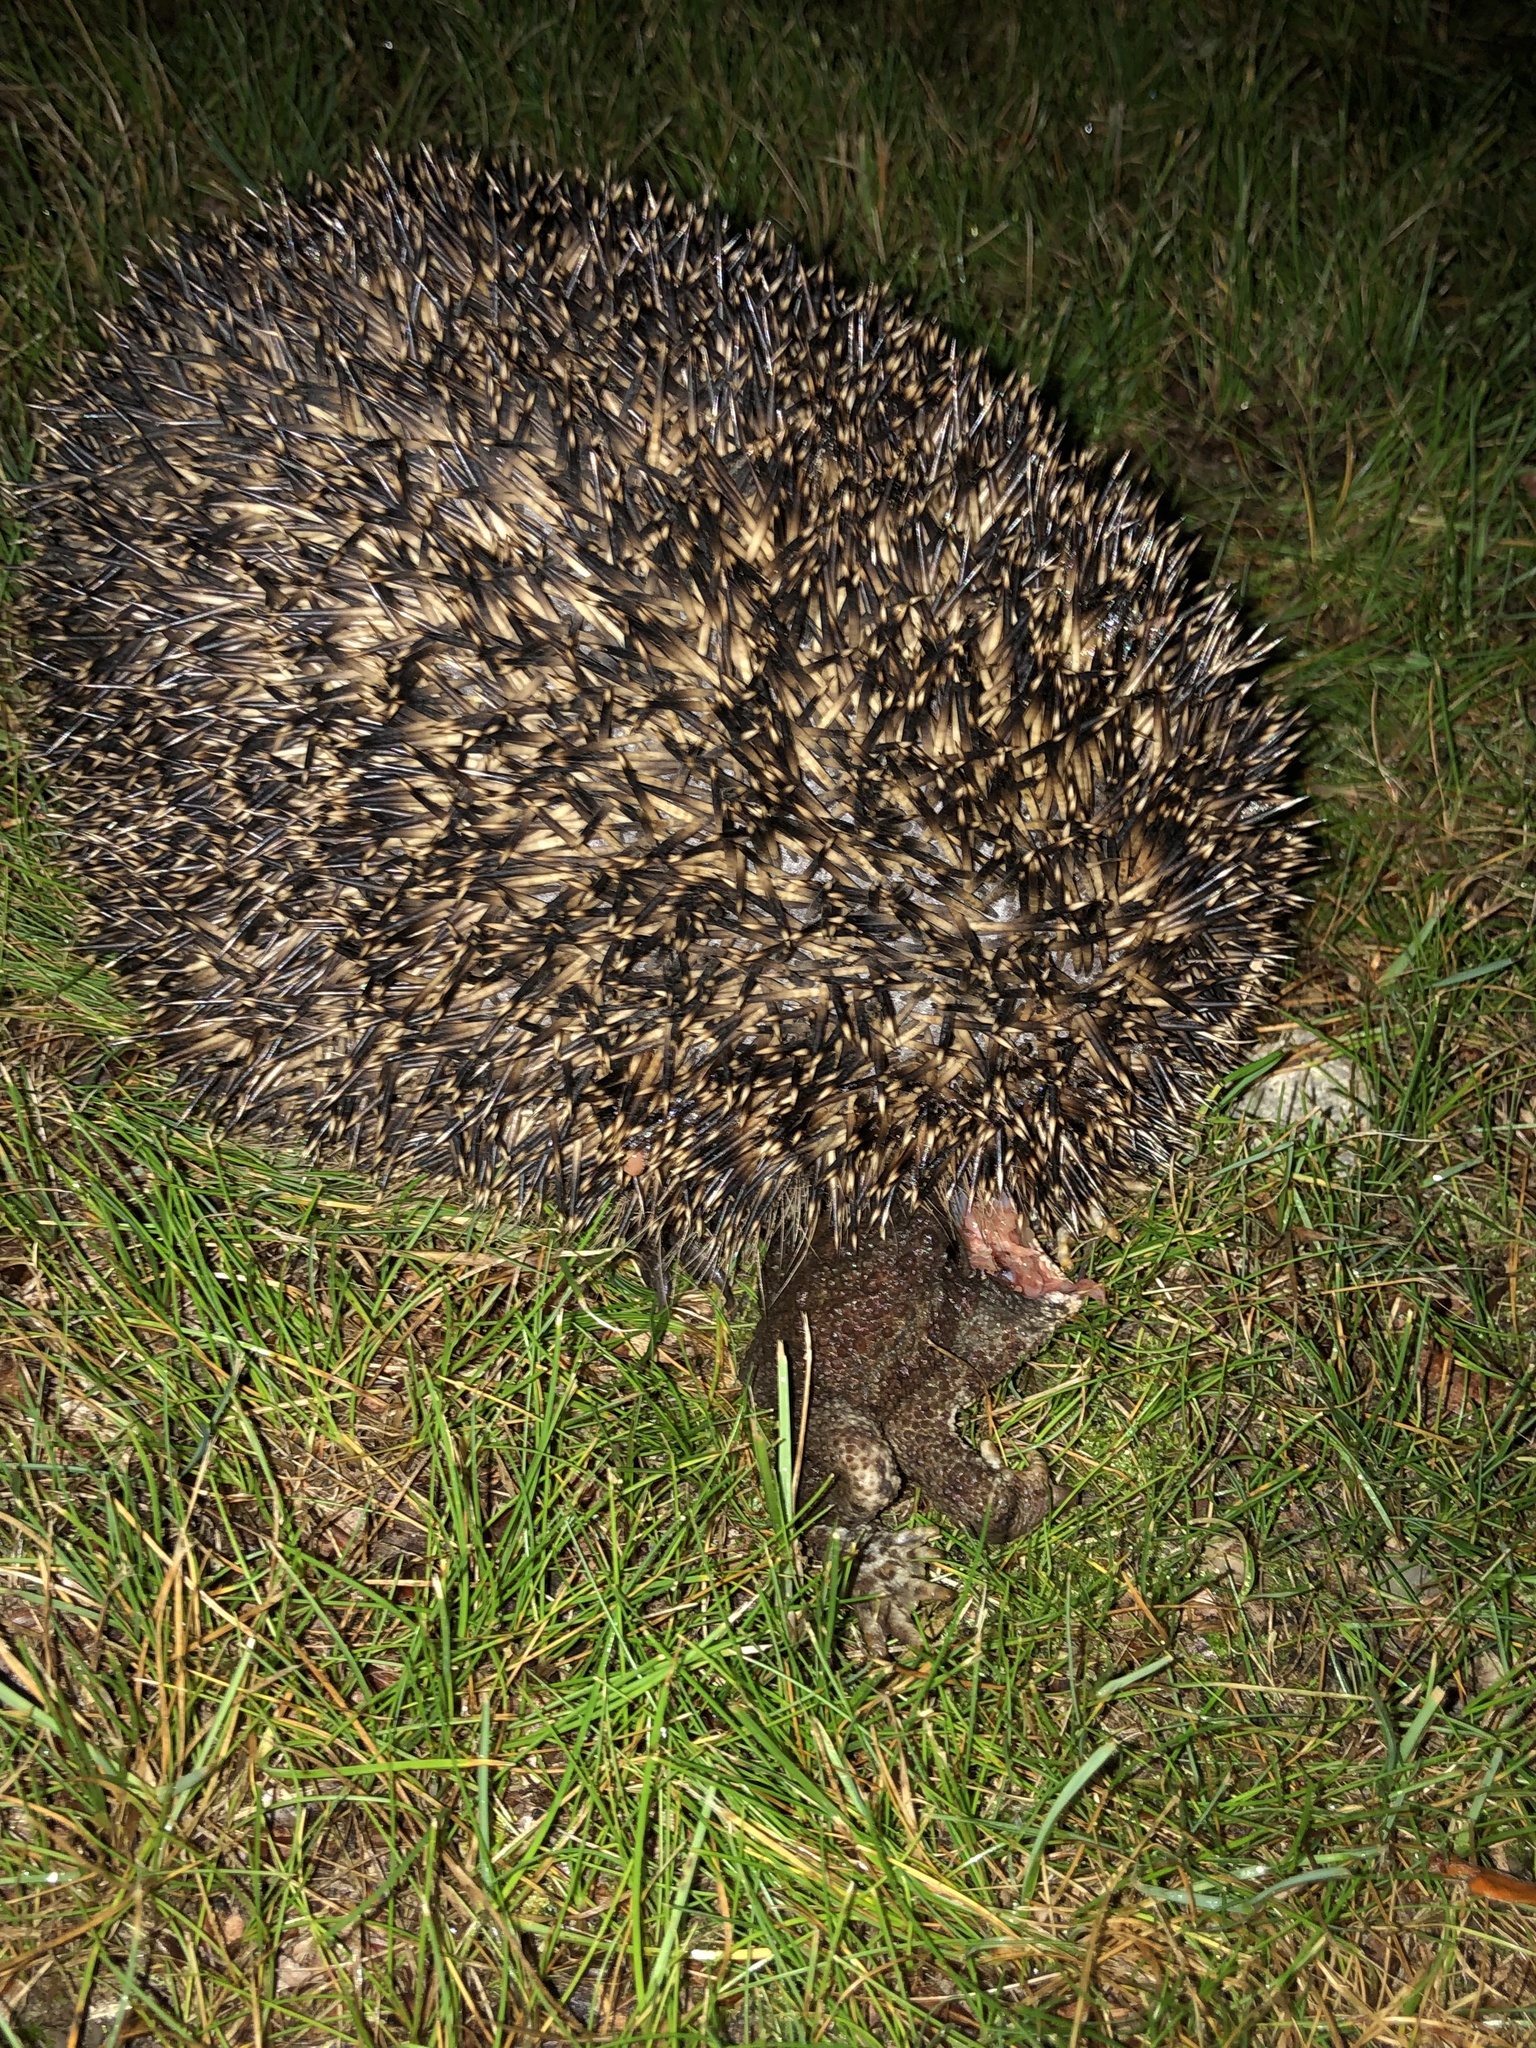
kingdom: Animalia
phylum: Chordata
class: Mammalia
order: Erinaceomorpha
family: Erinaceidae
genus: Erinaceus
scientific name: Erinaceus europaeus
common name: West european hedgehog
